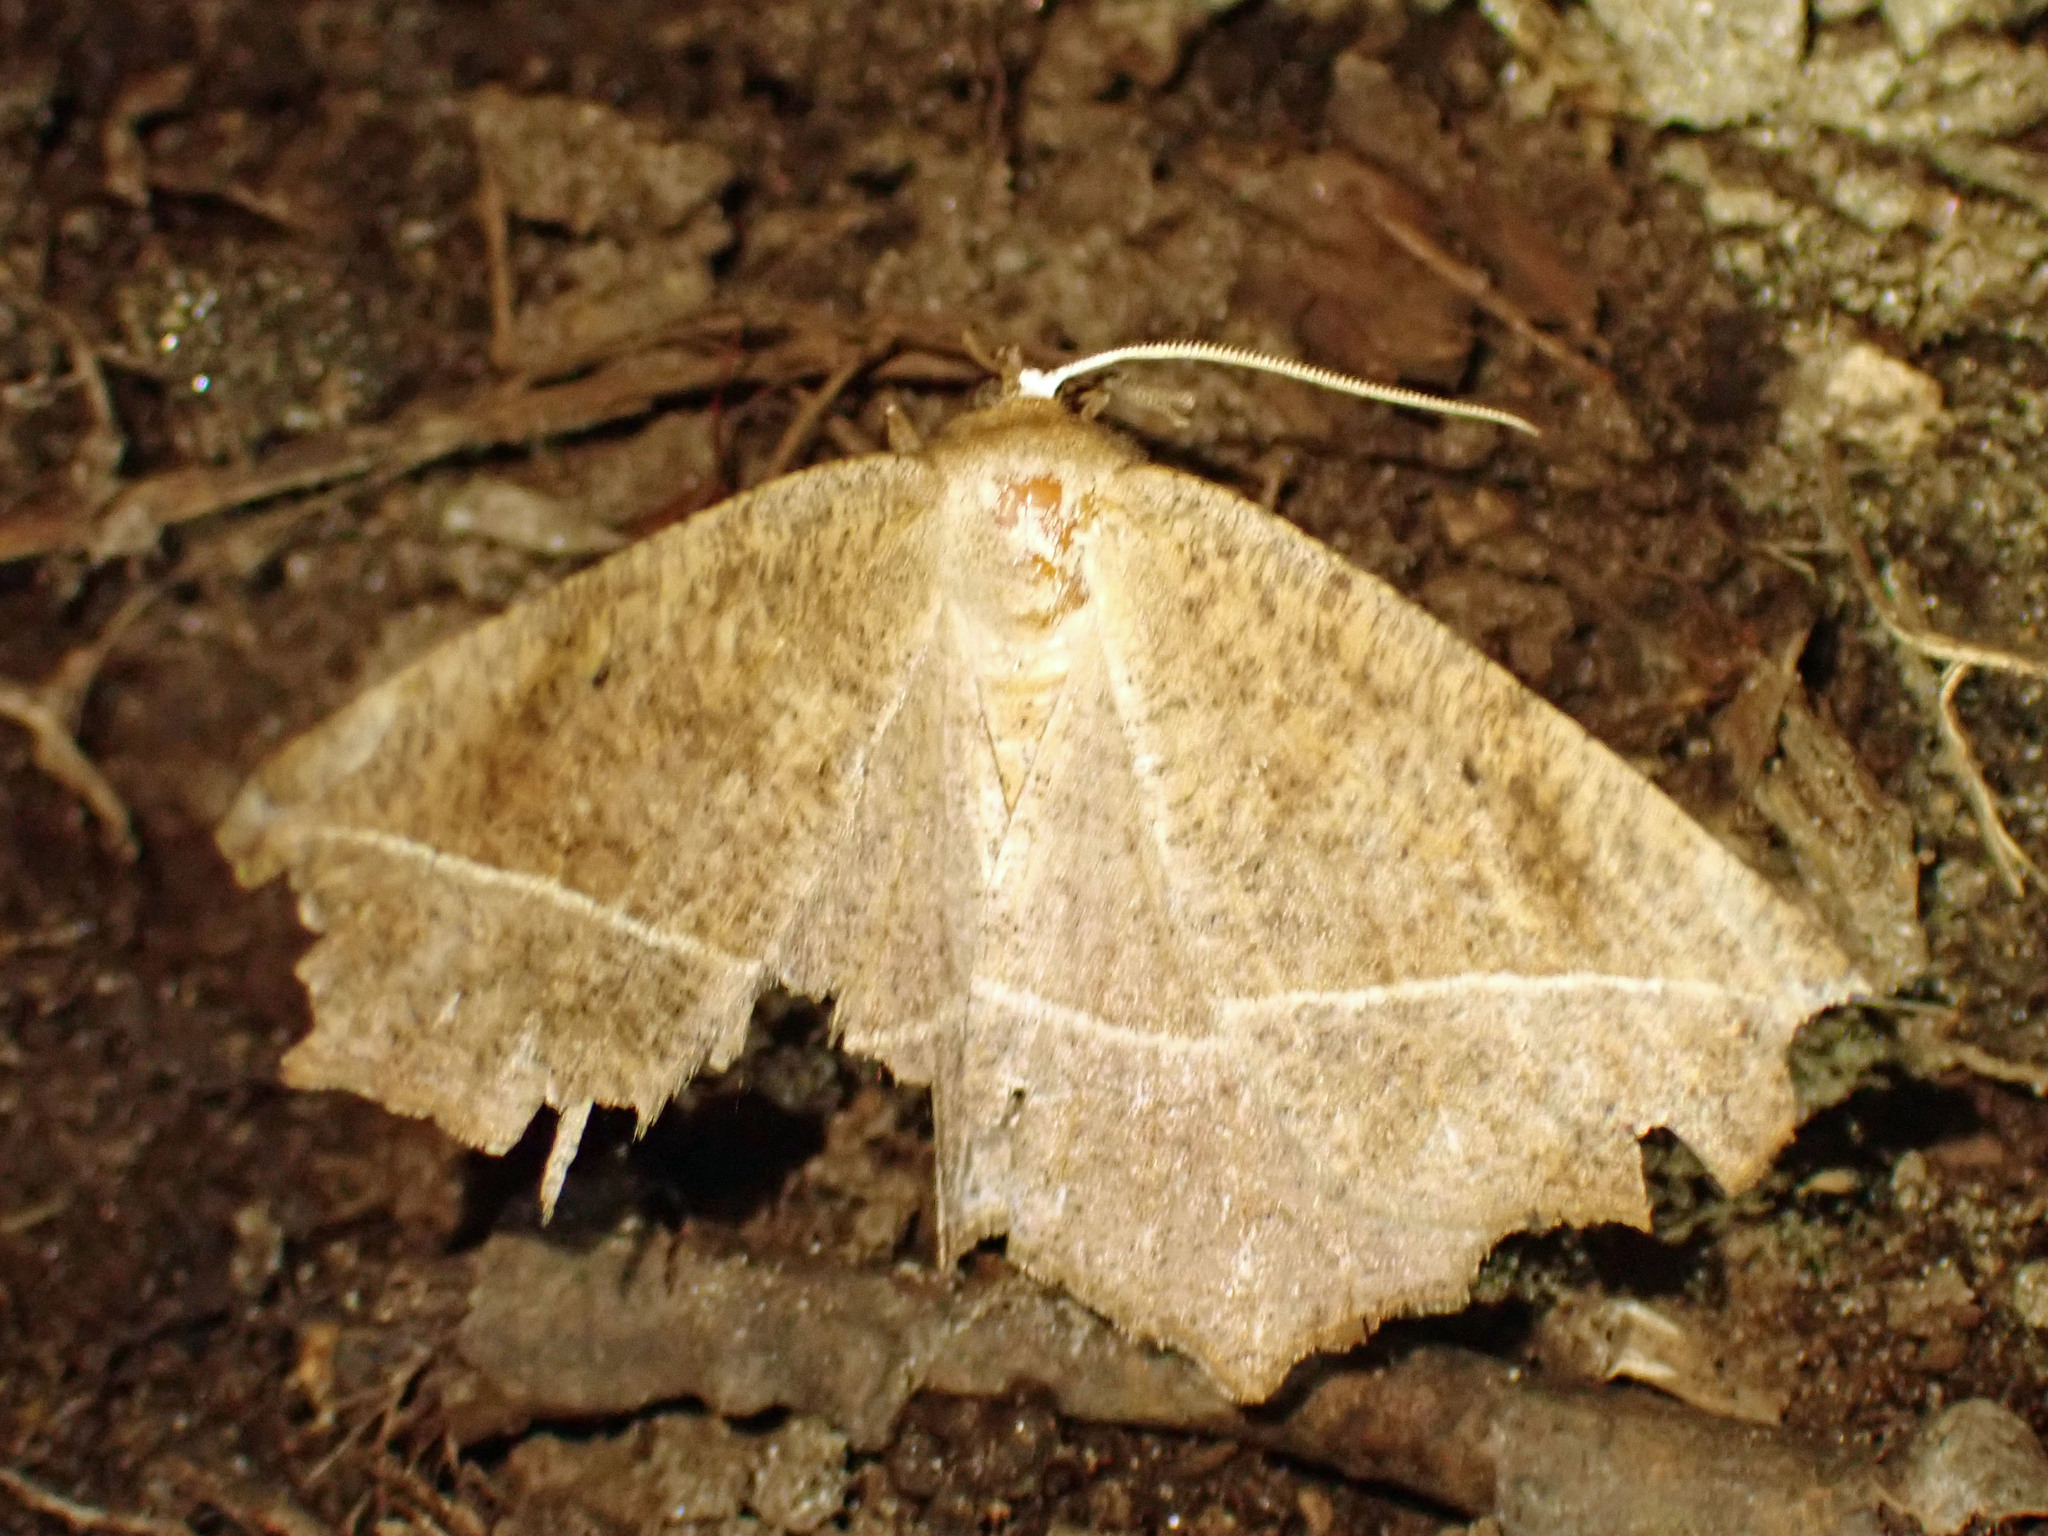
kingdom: Animalia
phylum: Arthropoda
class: Insecta
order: Lepidoptera
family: Geometridae
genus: Eutrapela
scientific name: Eutrapela clemataria
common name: Curved-toothed geometer
